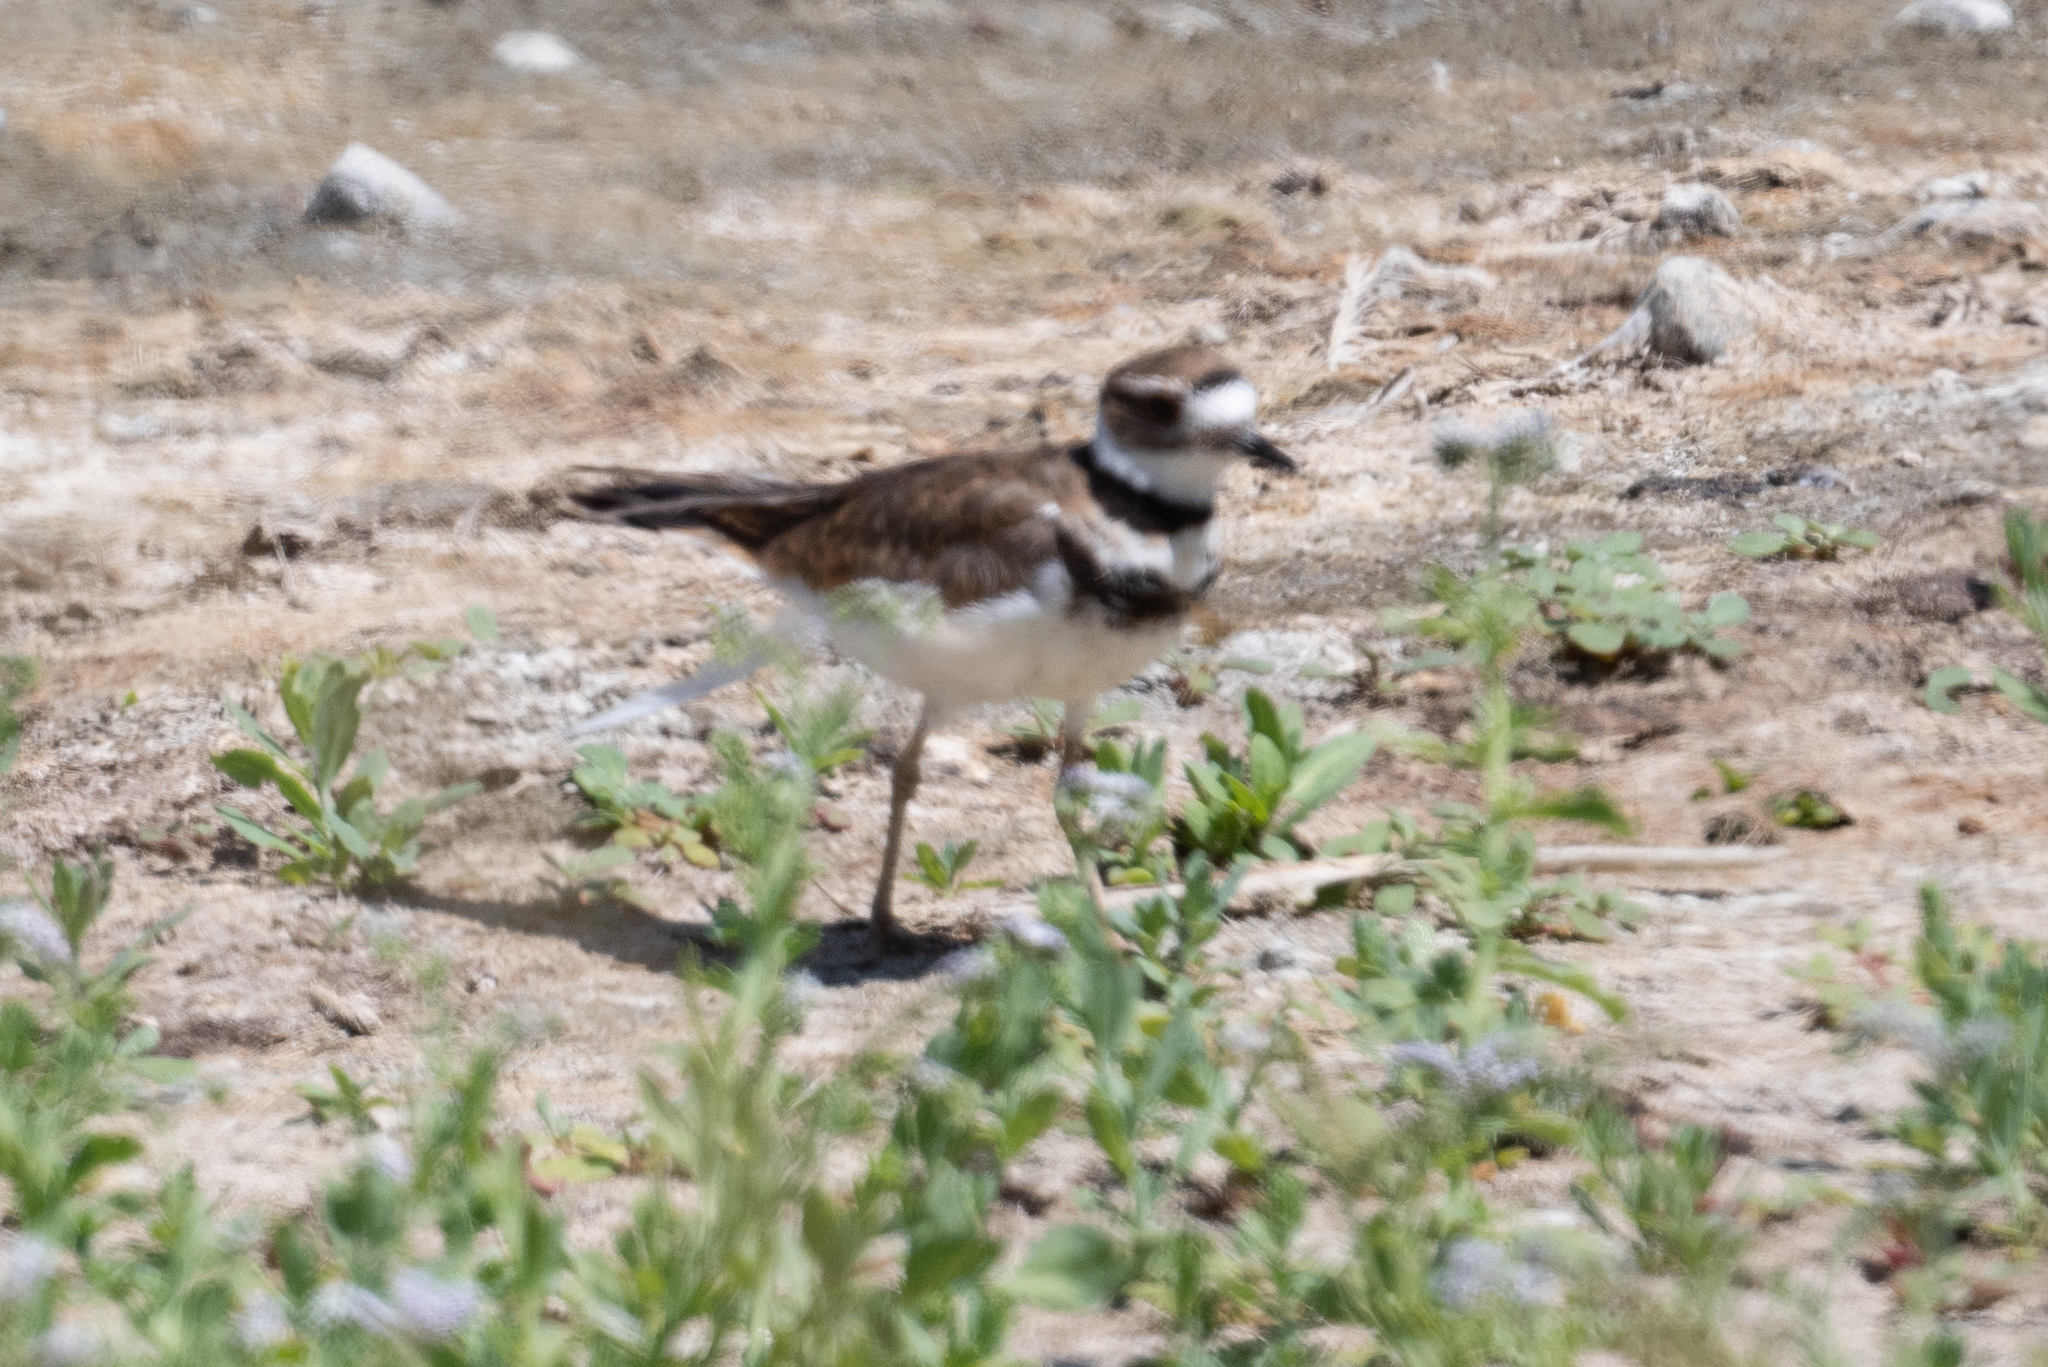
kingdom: Animalia
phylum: Chordata
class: Aves
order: Charadriiformes
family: Charadriidae
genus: Charadrius
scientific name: Charadrius vociferus
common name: Killdeer
